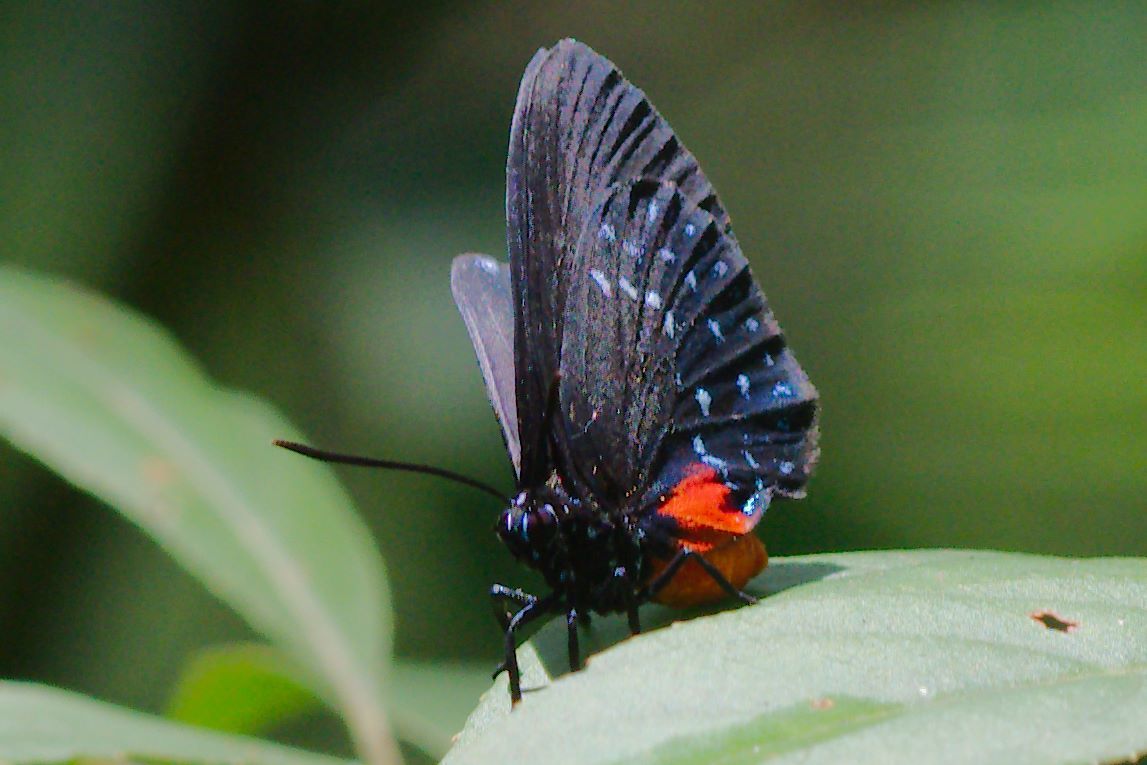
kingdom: Animalia
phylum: Arthropoda
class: Insecta
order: Lepidoptera
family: Lycaenidae
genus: Eumaeus
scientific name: Eumaeus atala
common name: Atala
